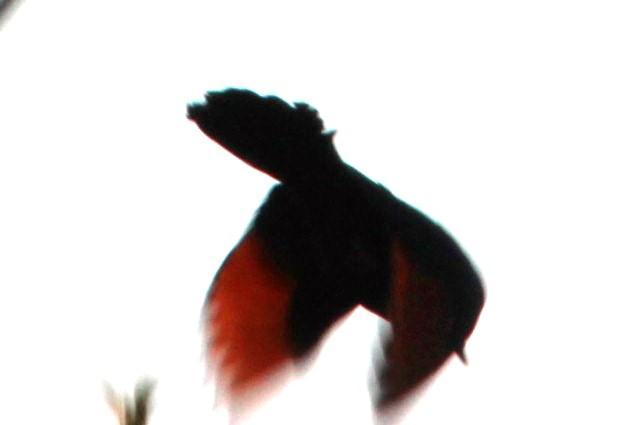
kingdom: Animalia
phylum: Chordata
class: Aves
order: Passeriformes
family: Sturnidae
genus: Onychognathus
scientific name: Onychognathus morio
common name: Red-winged starling
